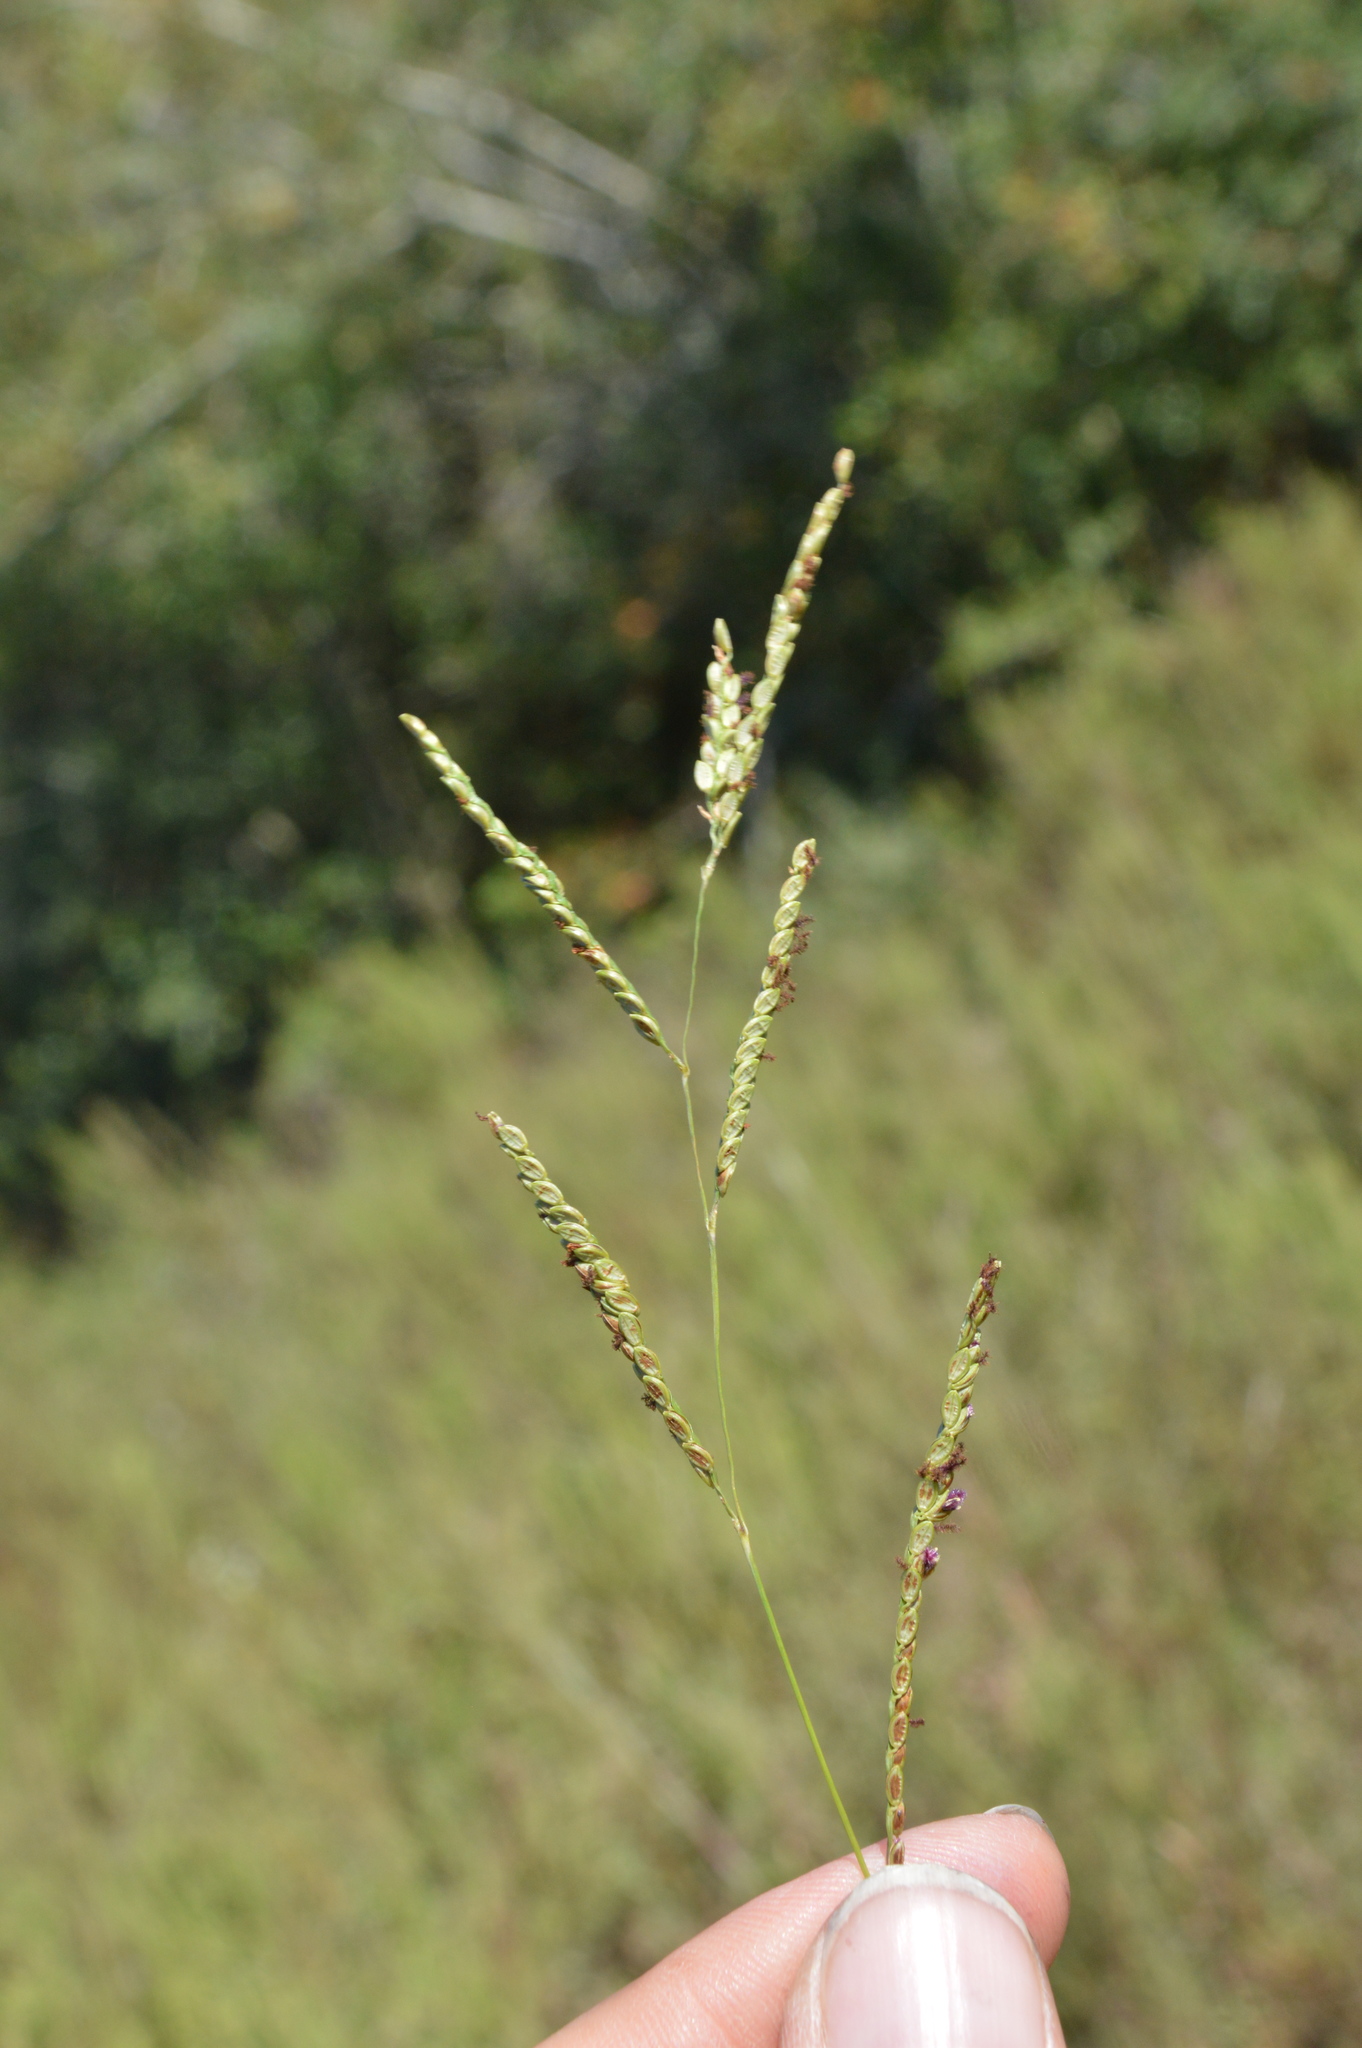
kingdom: Plantae
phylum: Tracheophyta
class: Liliopsida
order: Poales
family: Poaceae
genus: Paspalum
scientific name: Paspalum plicatulum
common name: Top paspalum
